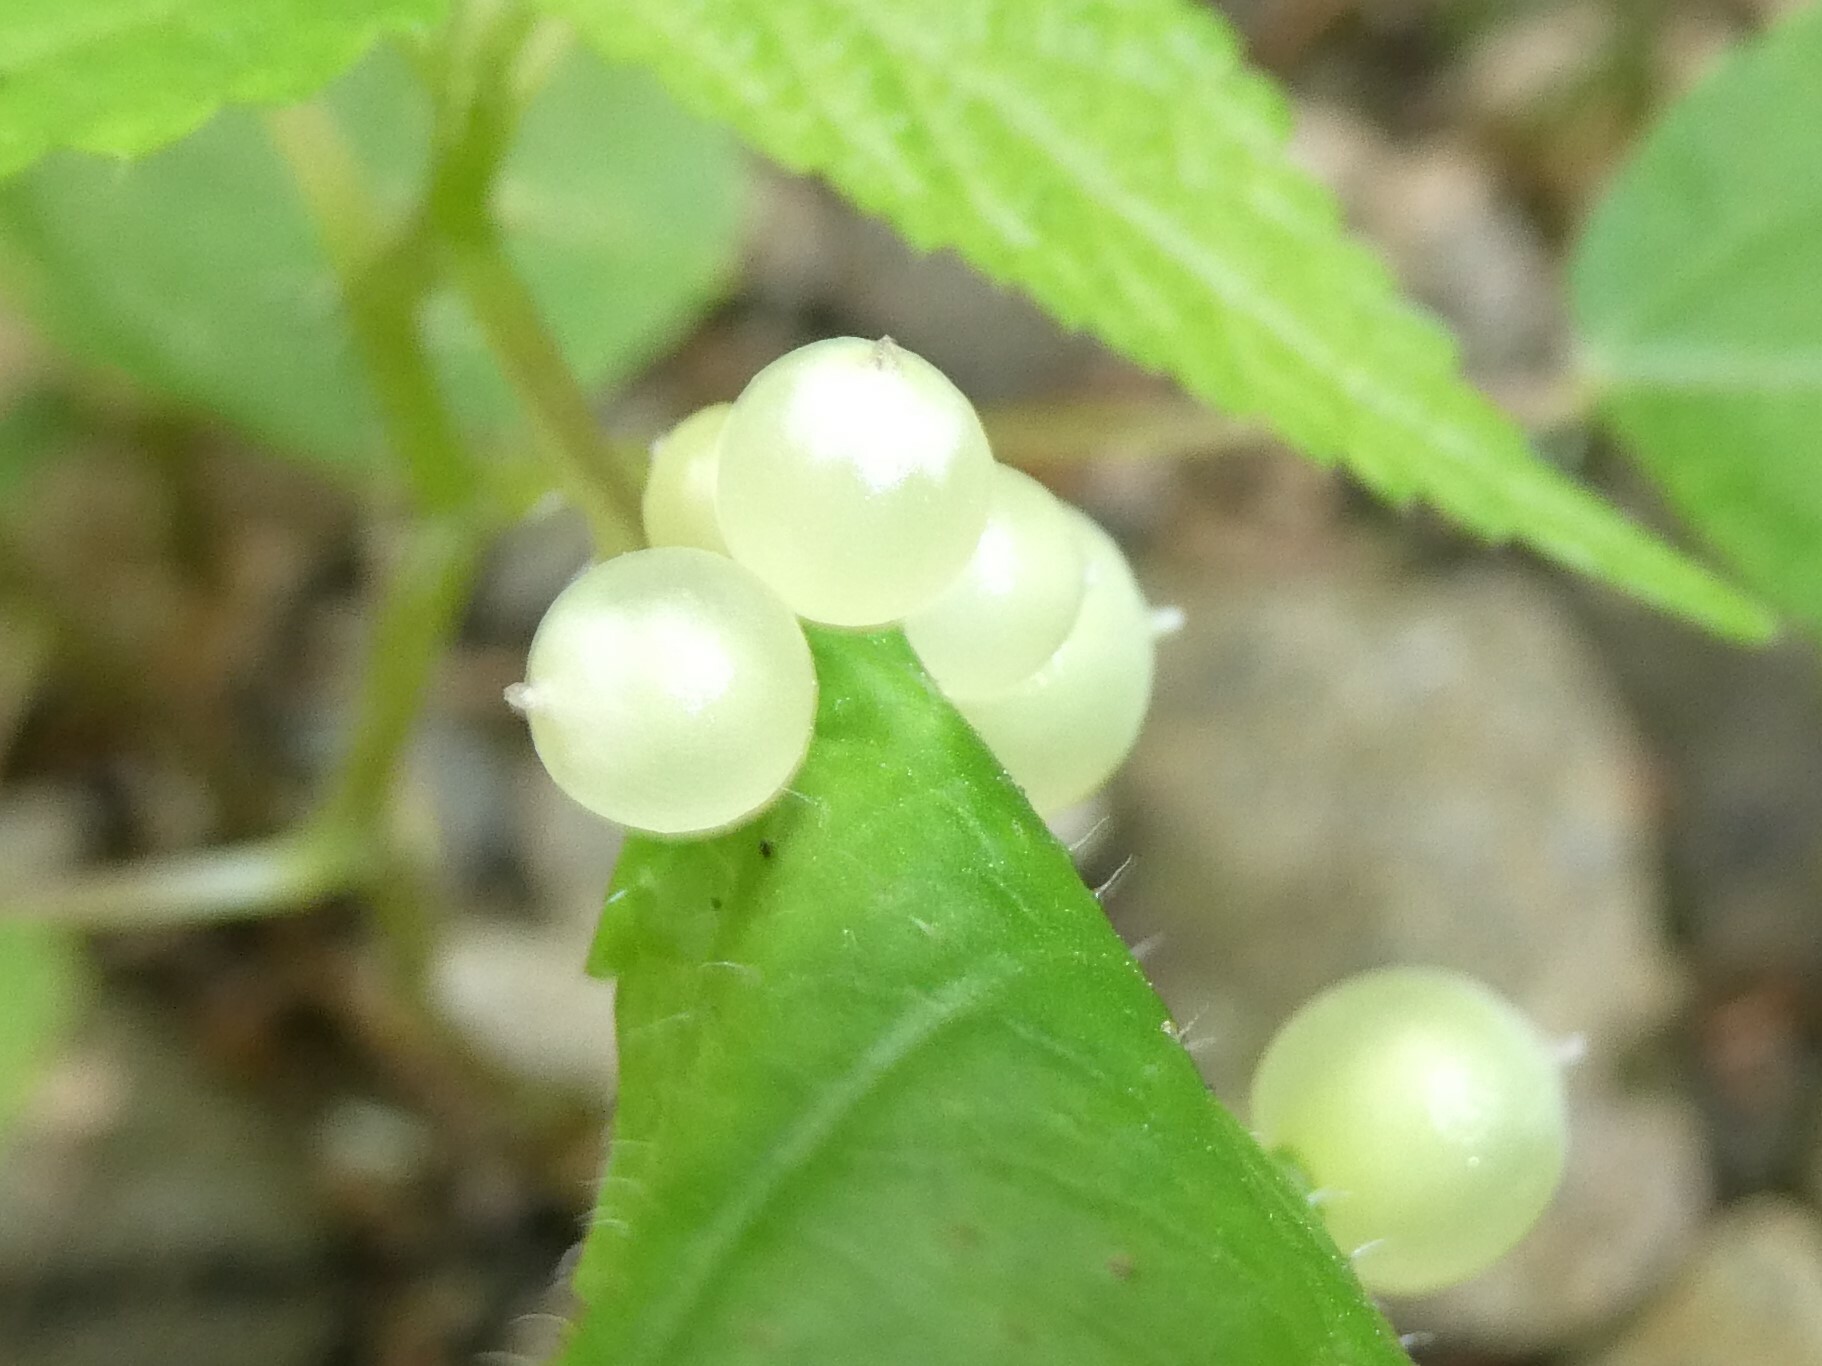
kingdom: Animalia
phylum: Arthropoda
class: Insecta
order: Diptera
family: Cecidomyiidae
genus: Dasineura
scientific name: Dasineura investita
